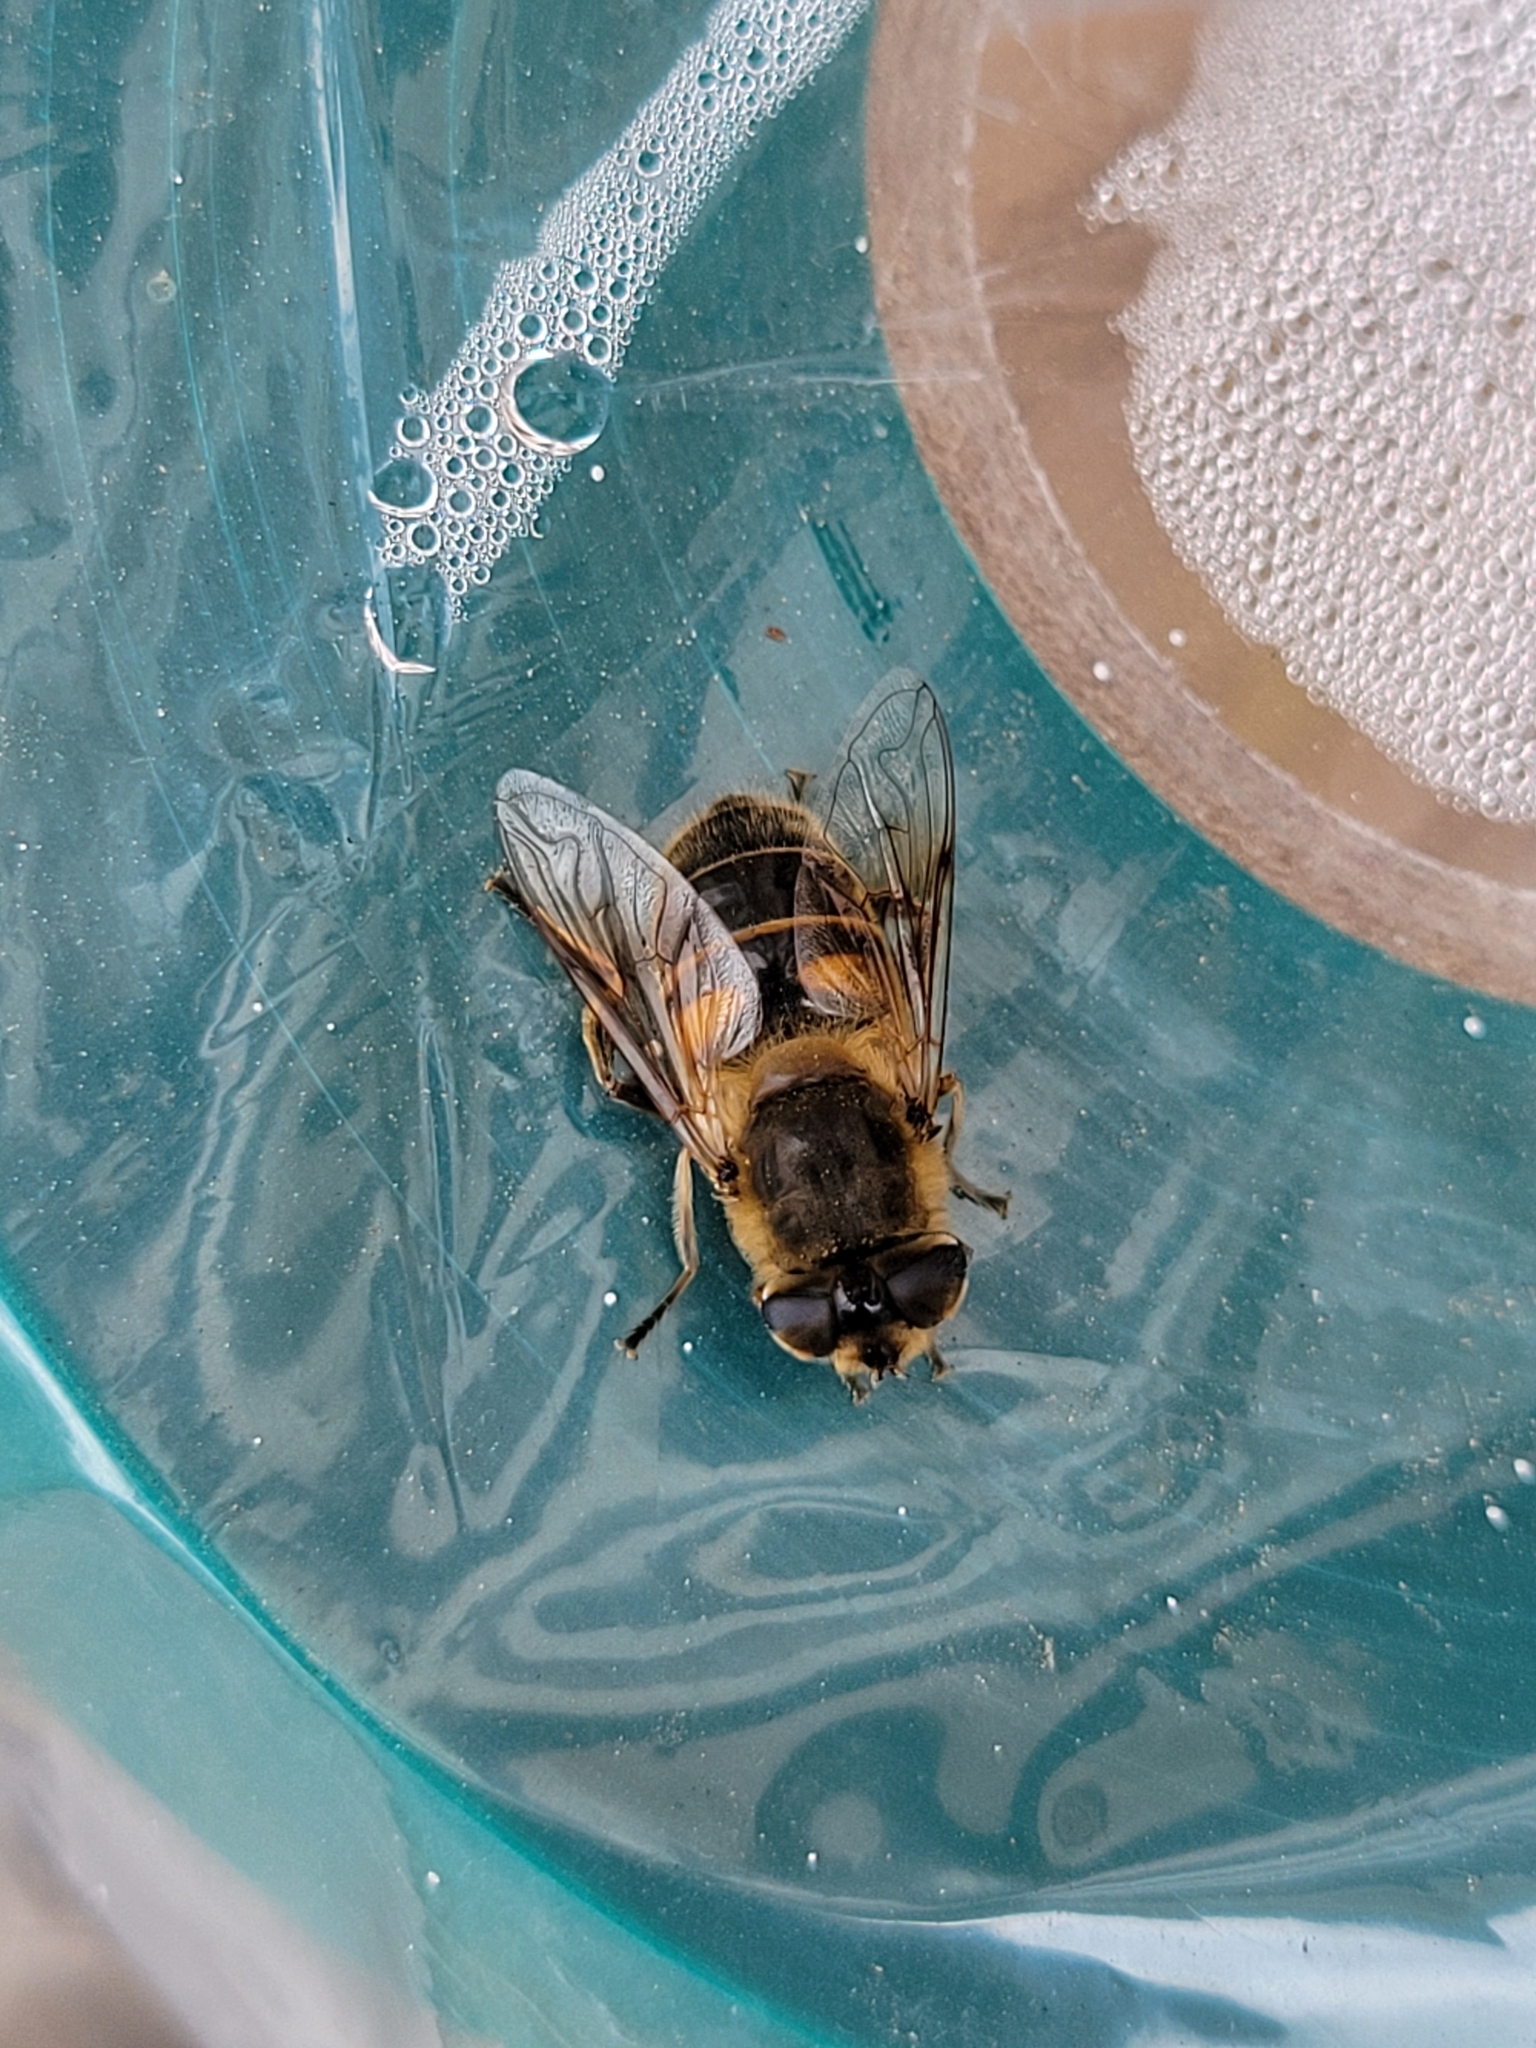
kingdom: Animalia
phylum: Arthropoda
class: Insecta
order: Diptera
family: Syrphidae
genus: Eristalis
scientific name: Eristalis tenax
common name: Drone fly
